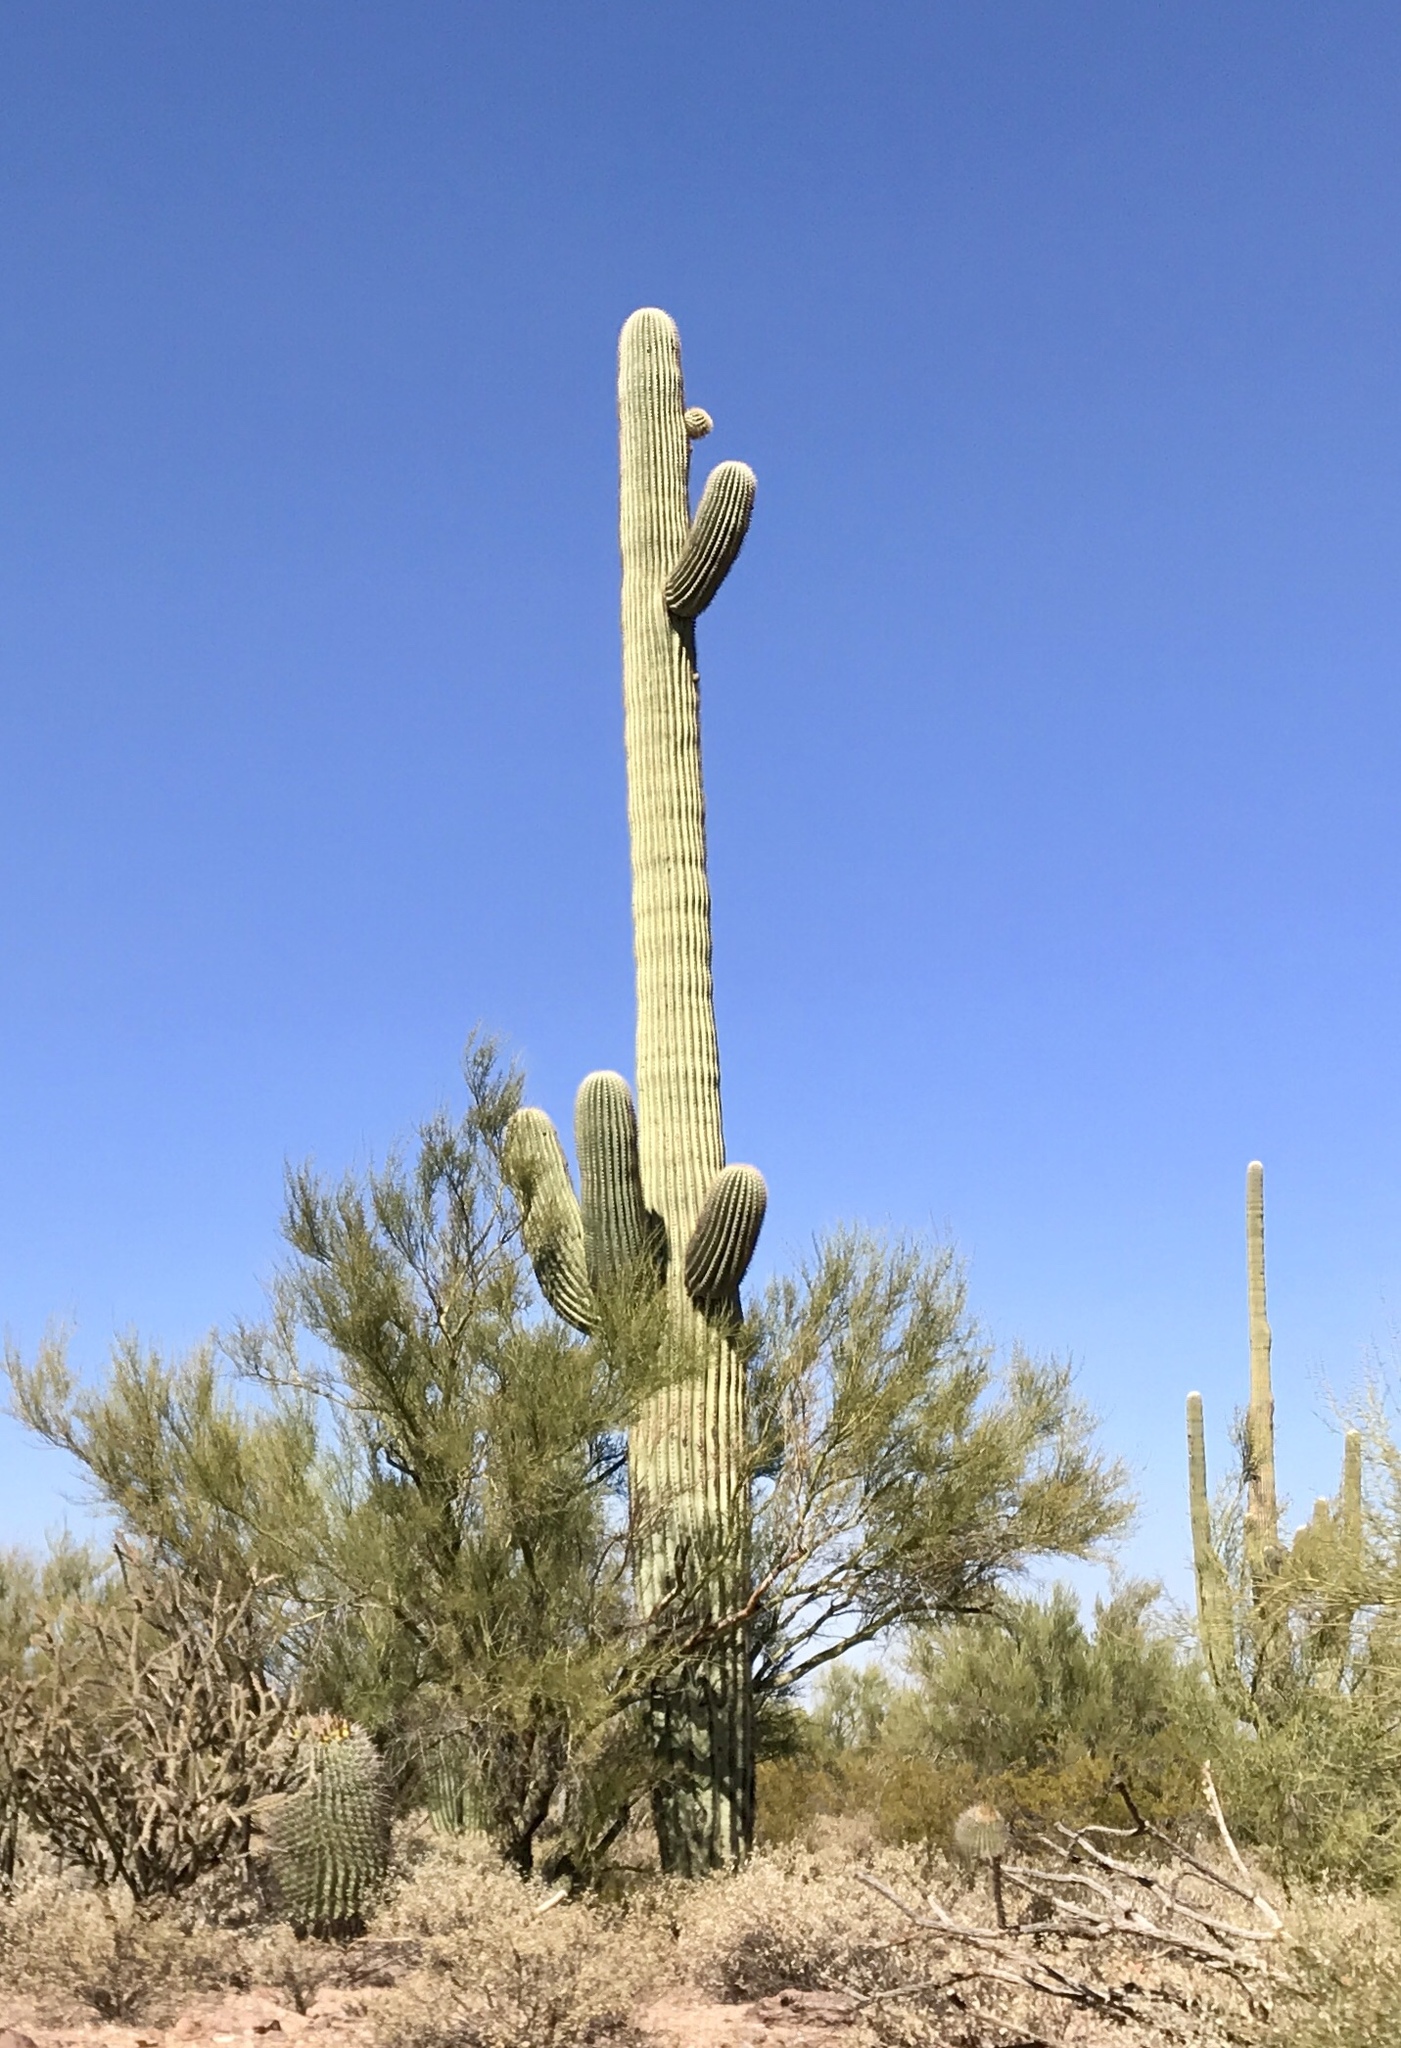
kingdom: Plantae
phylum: Tracheophyta
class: Magnoliopsida
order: Caryophyllales
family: Cactaceae
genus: Carnegiea
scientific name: Carnegiea gigantea
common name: Saguaro
